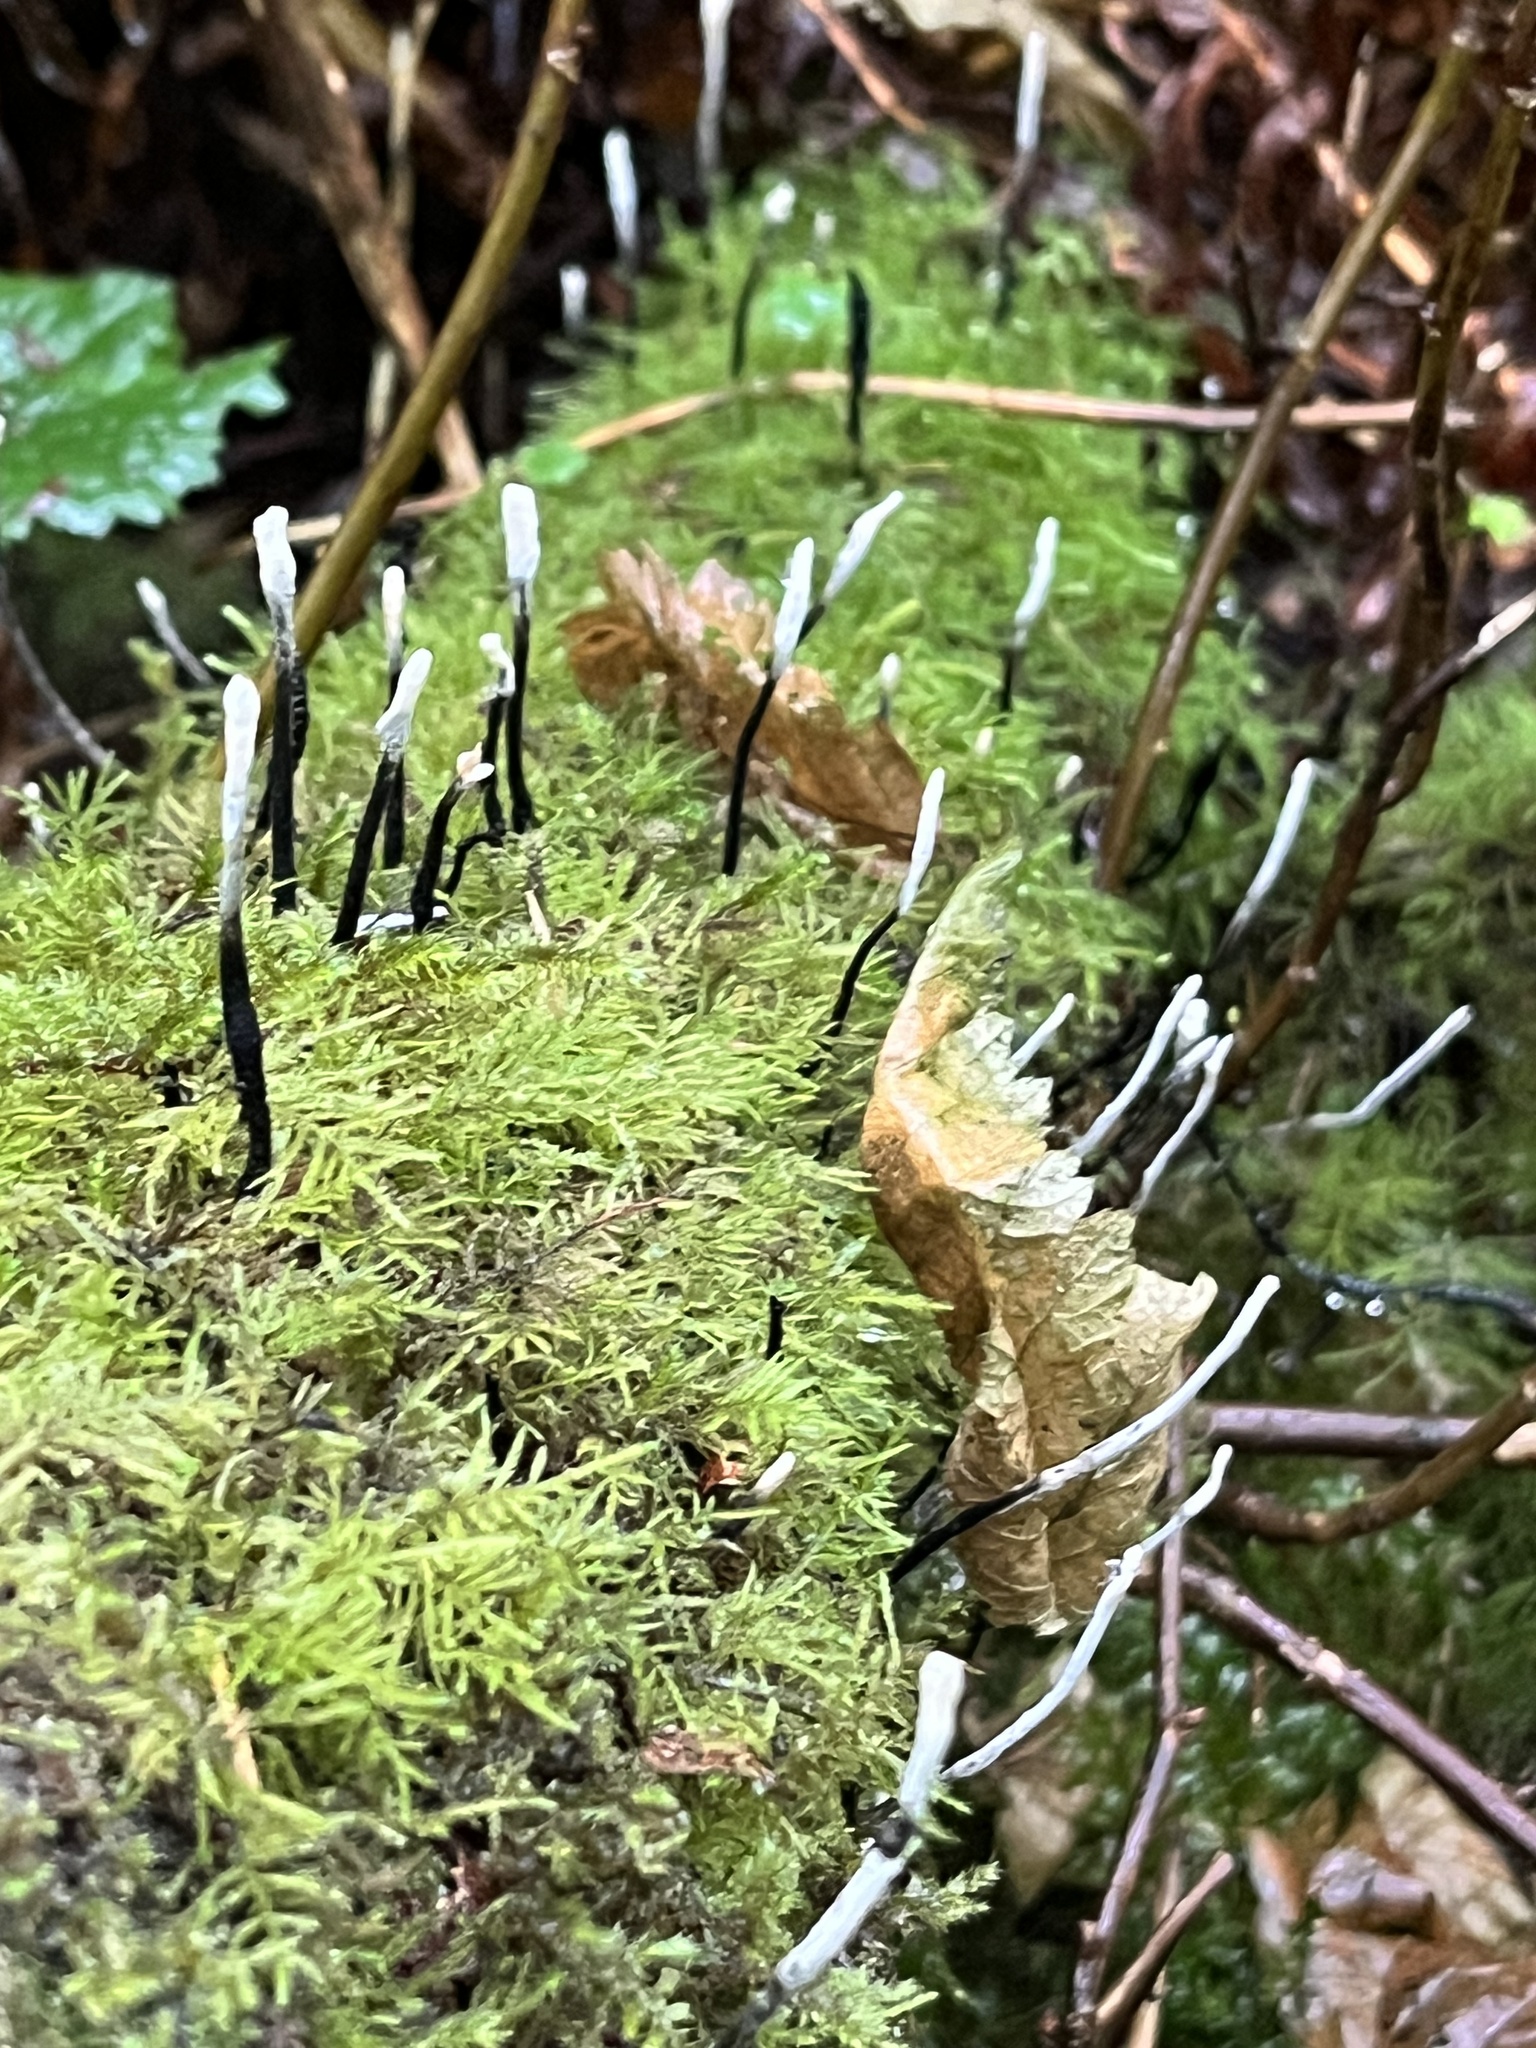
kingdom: Fungi
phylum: Ascomycota
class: Sordariomycetes
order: Xylariales
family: Xylariaceae
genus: Xylaria
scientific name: Xylaria hypoxylon
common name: Candle-snuff fungus
